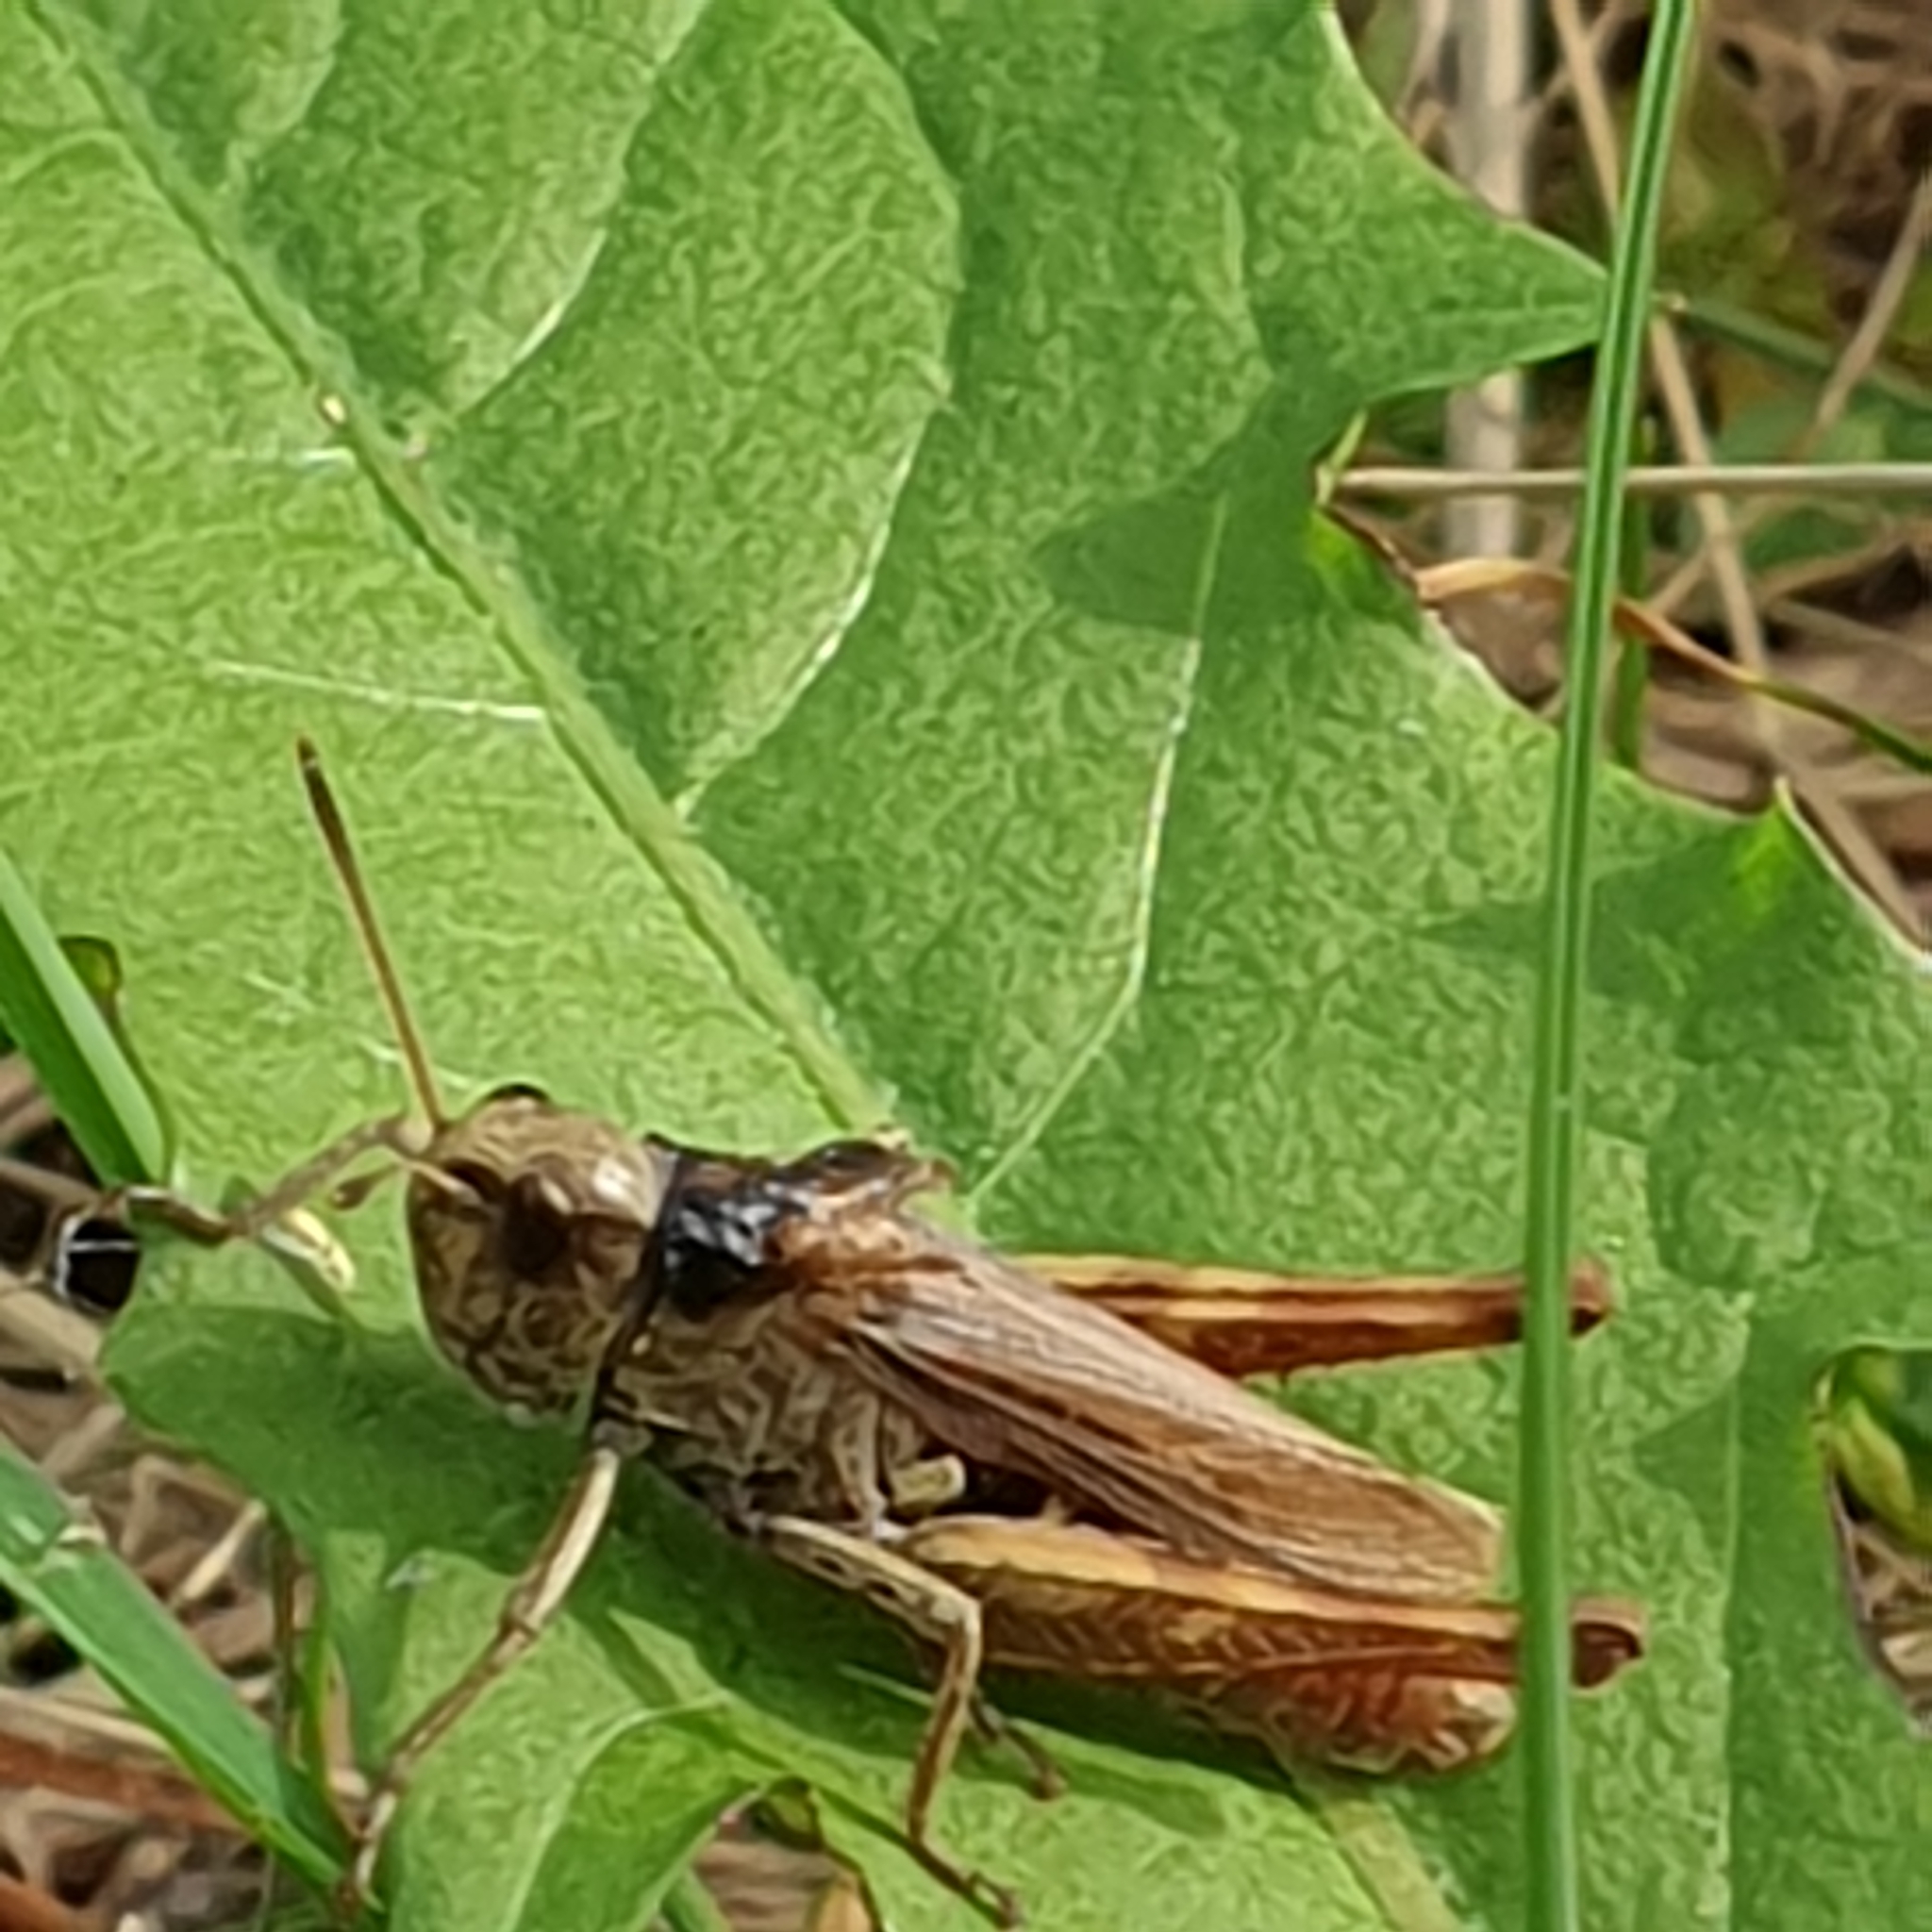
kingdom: Animalia
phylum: Arthropoda
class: Insecta
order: Orthoptera
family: Acrididae
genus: Gomphocerippus
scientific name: Gomphocerippus rufus
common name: Rufous grasshopper
